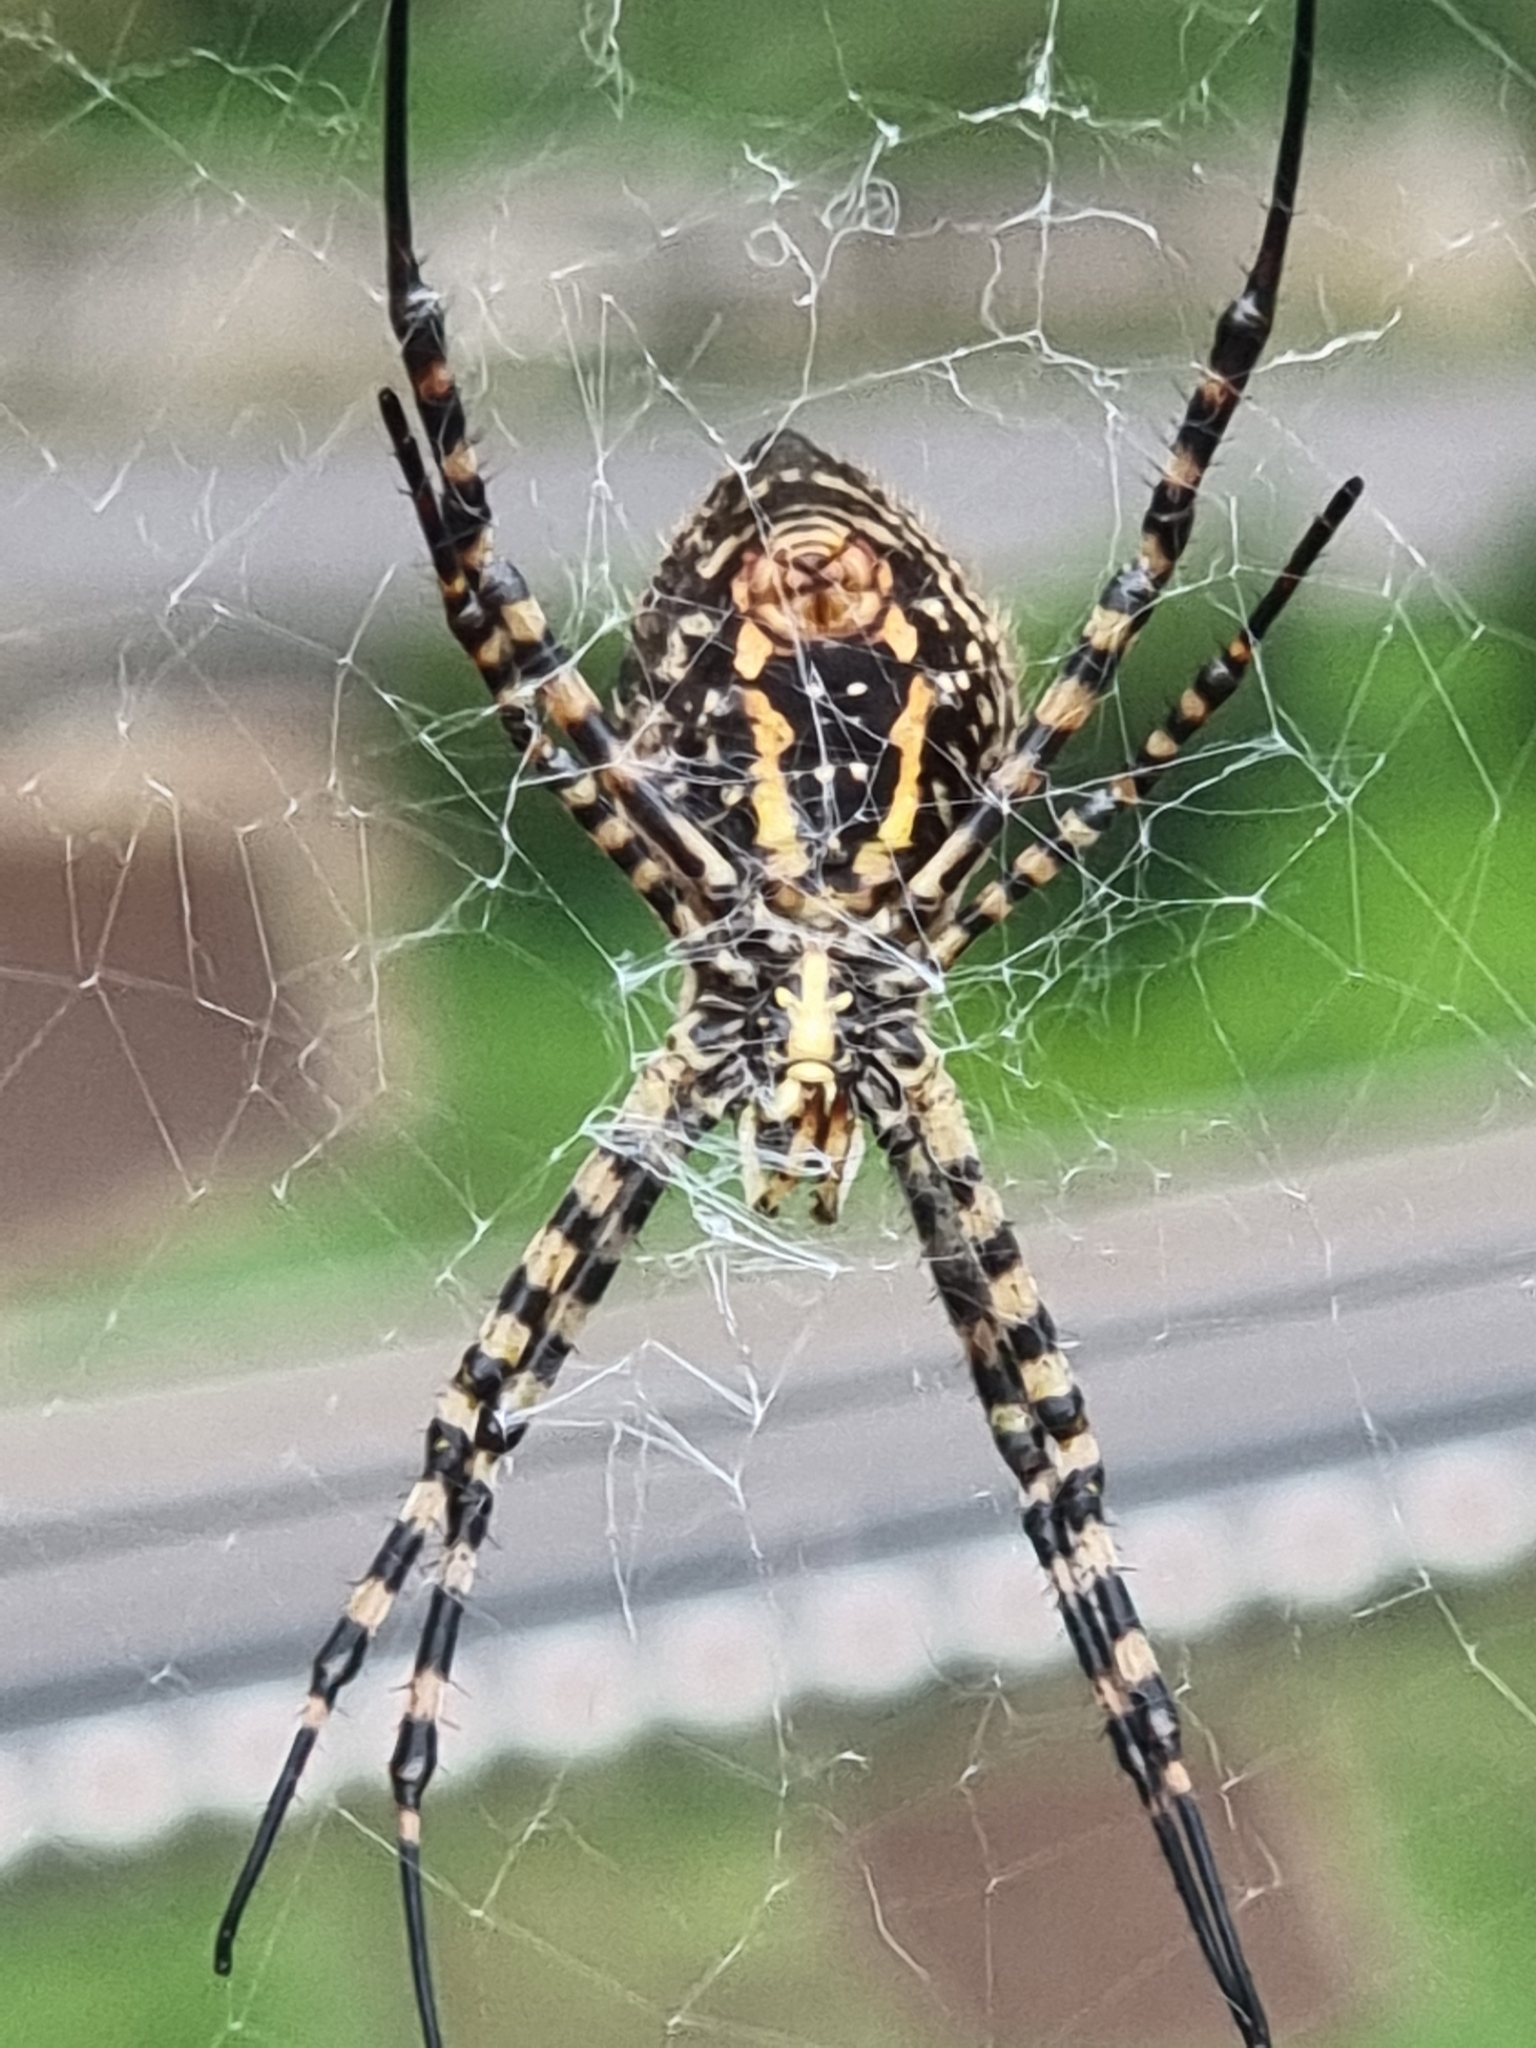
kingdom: Animalia
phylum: Arthropoda
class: Arachnida
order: Araneae
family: Araneidae
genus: Argiope
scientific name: Argiope trifasciata
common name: Banded garden spider
